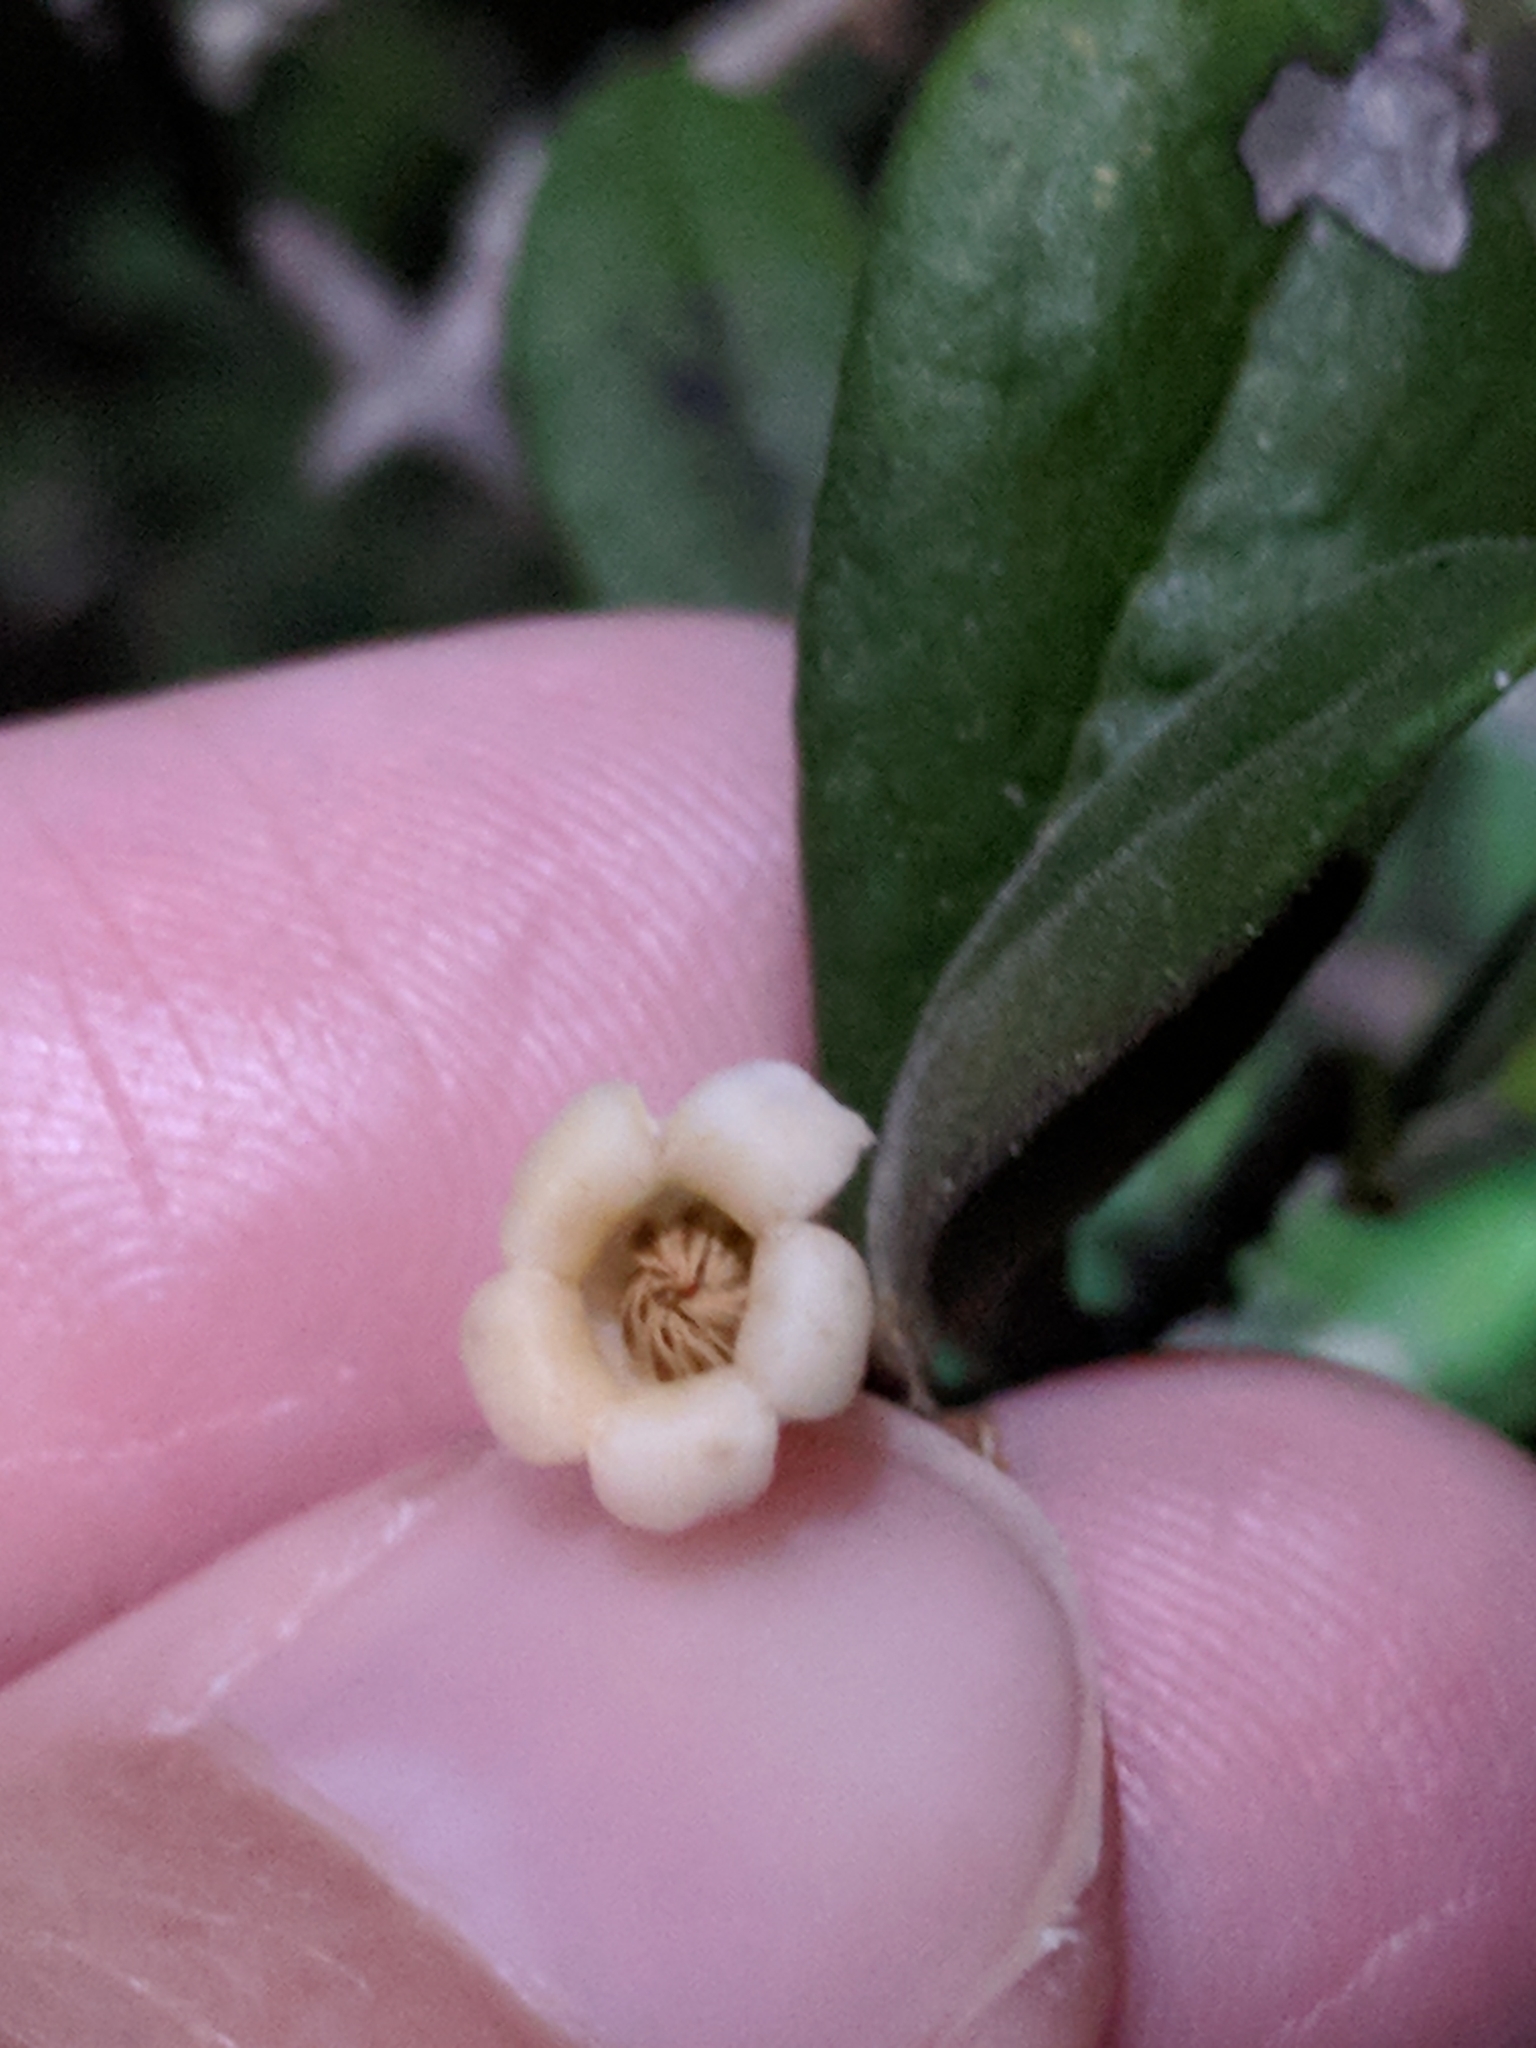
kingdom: Plantae
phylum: Tracheophyta
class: Magnoliopsida
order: Ericales
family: Ebenaceae
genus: Diospyros
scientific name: Diospyros texana
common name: Texas persimmon
